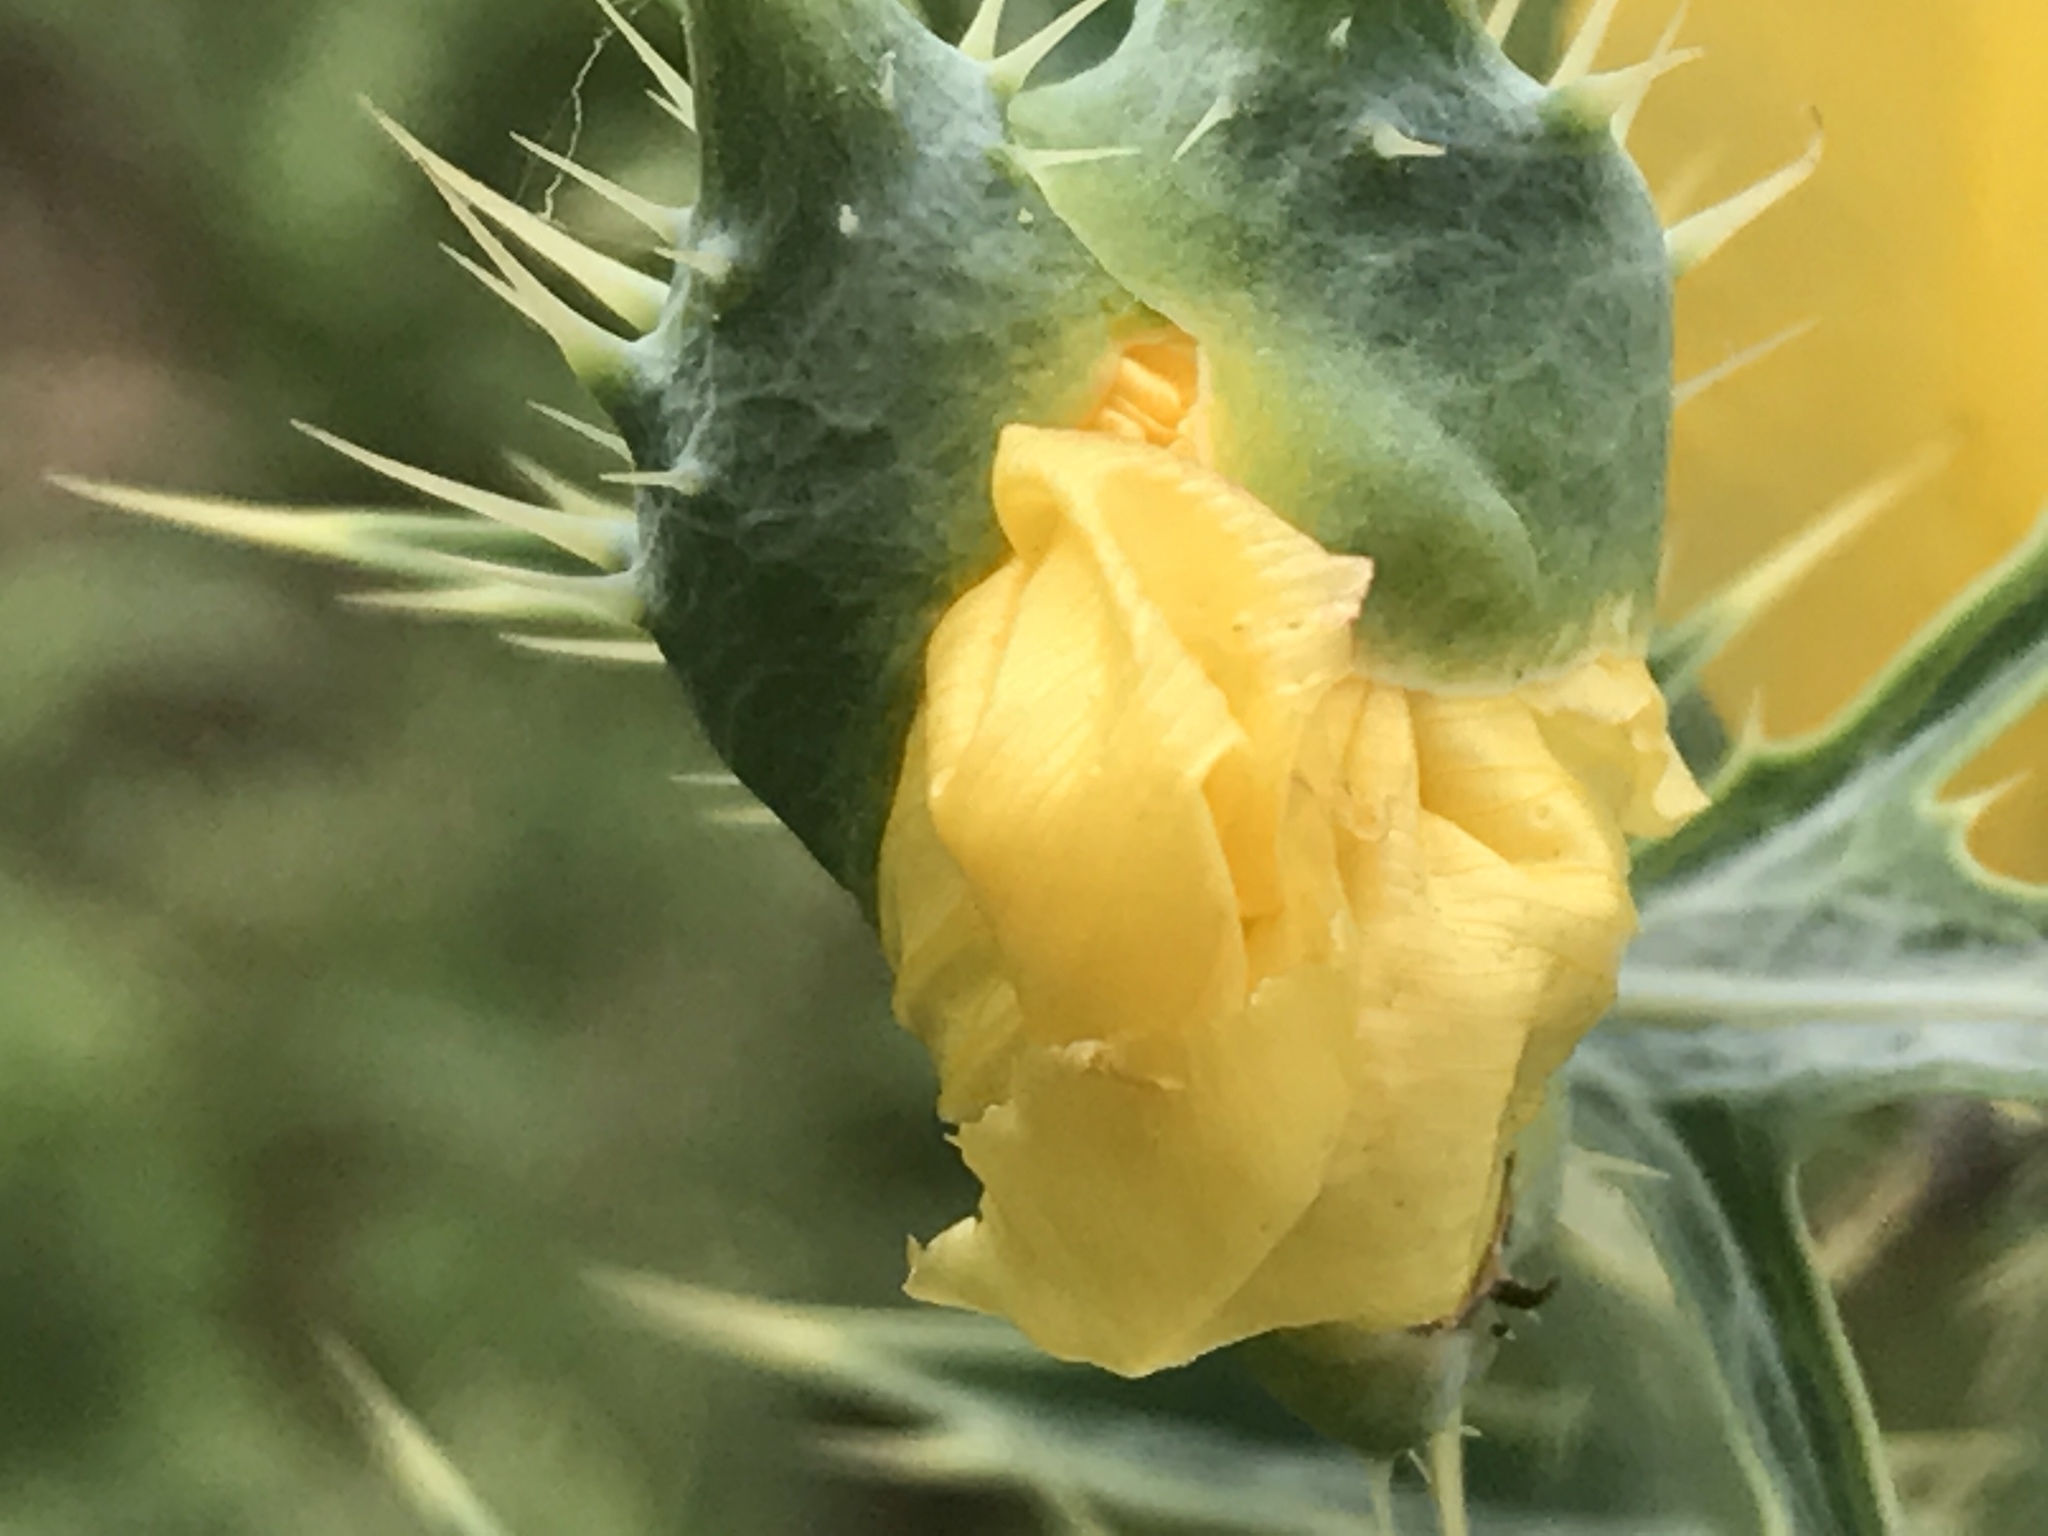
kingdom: Plantae
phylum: Tracheophyta
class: Magnoliopsida
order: Ranunculales
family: Papaveraceae
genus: Argemone
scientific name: Argemone aenea
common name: Golden prickly-poppy
